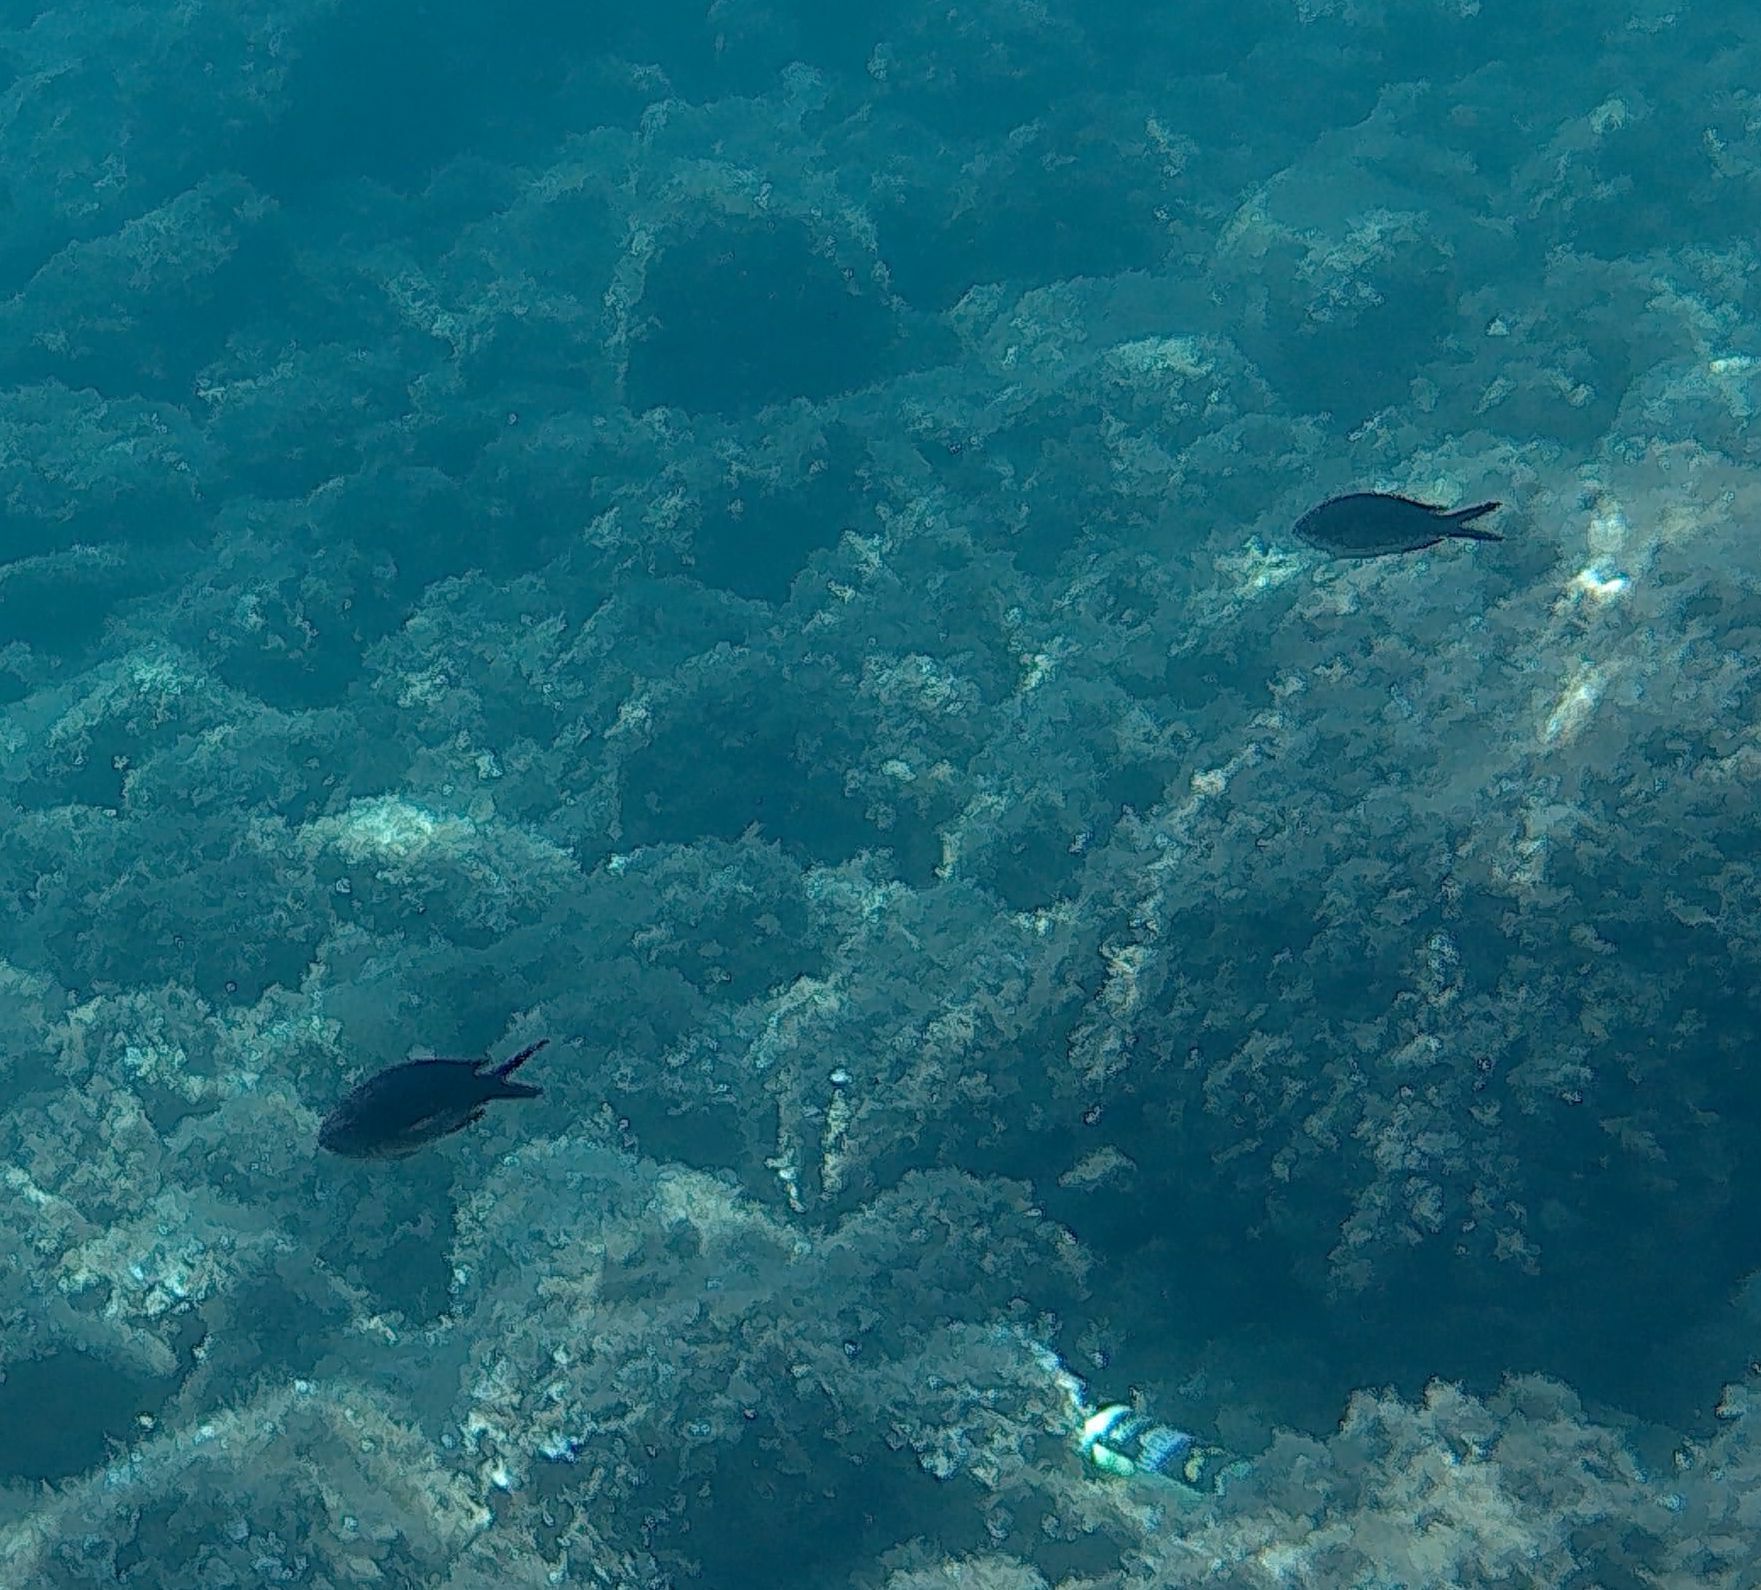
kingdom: Animalia
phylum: Chordata
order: Perciformes
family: Pomacentridae
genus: Chromis
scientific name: Chromis chromis
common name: Damselfish
